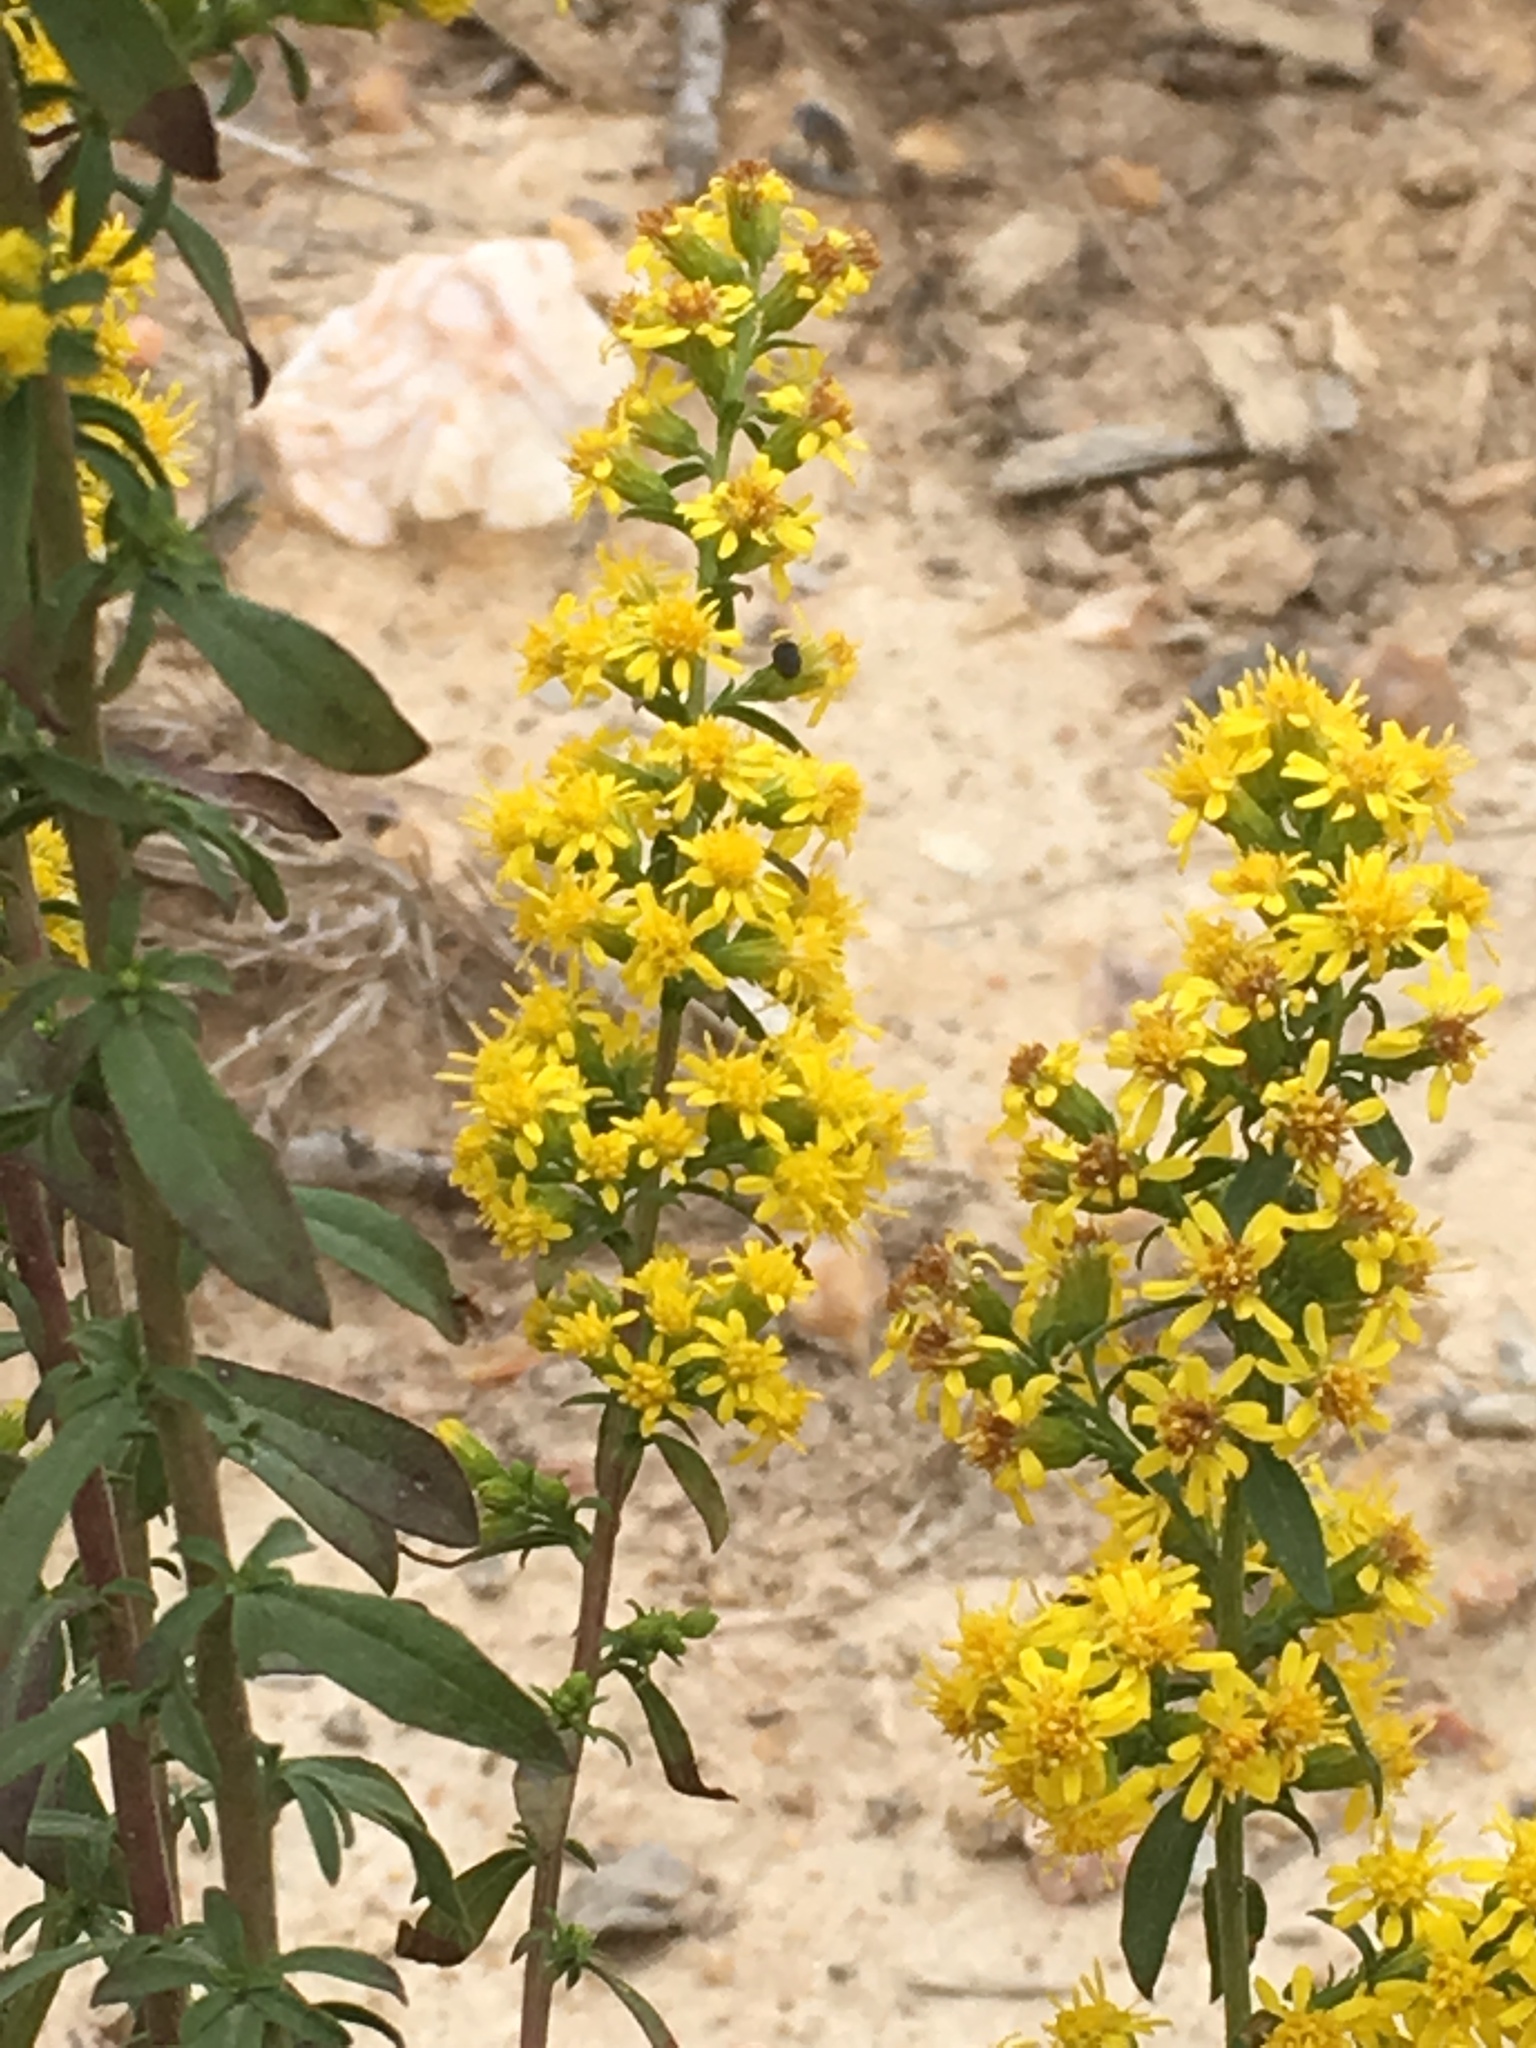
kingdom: Plantae
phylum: Tracheophyta
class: Magnoliopsida
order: Asterales
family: Asteraceae
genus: Solidago
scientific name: Solidago erecta
